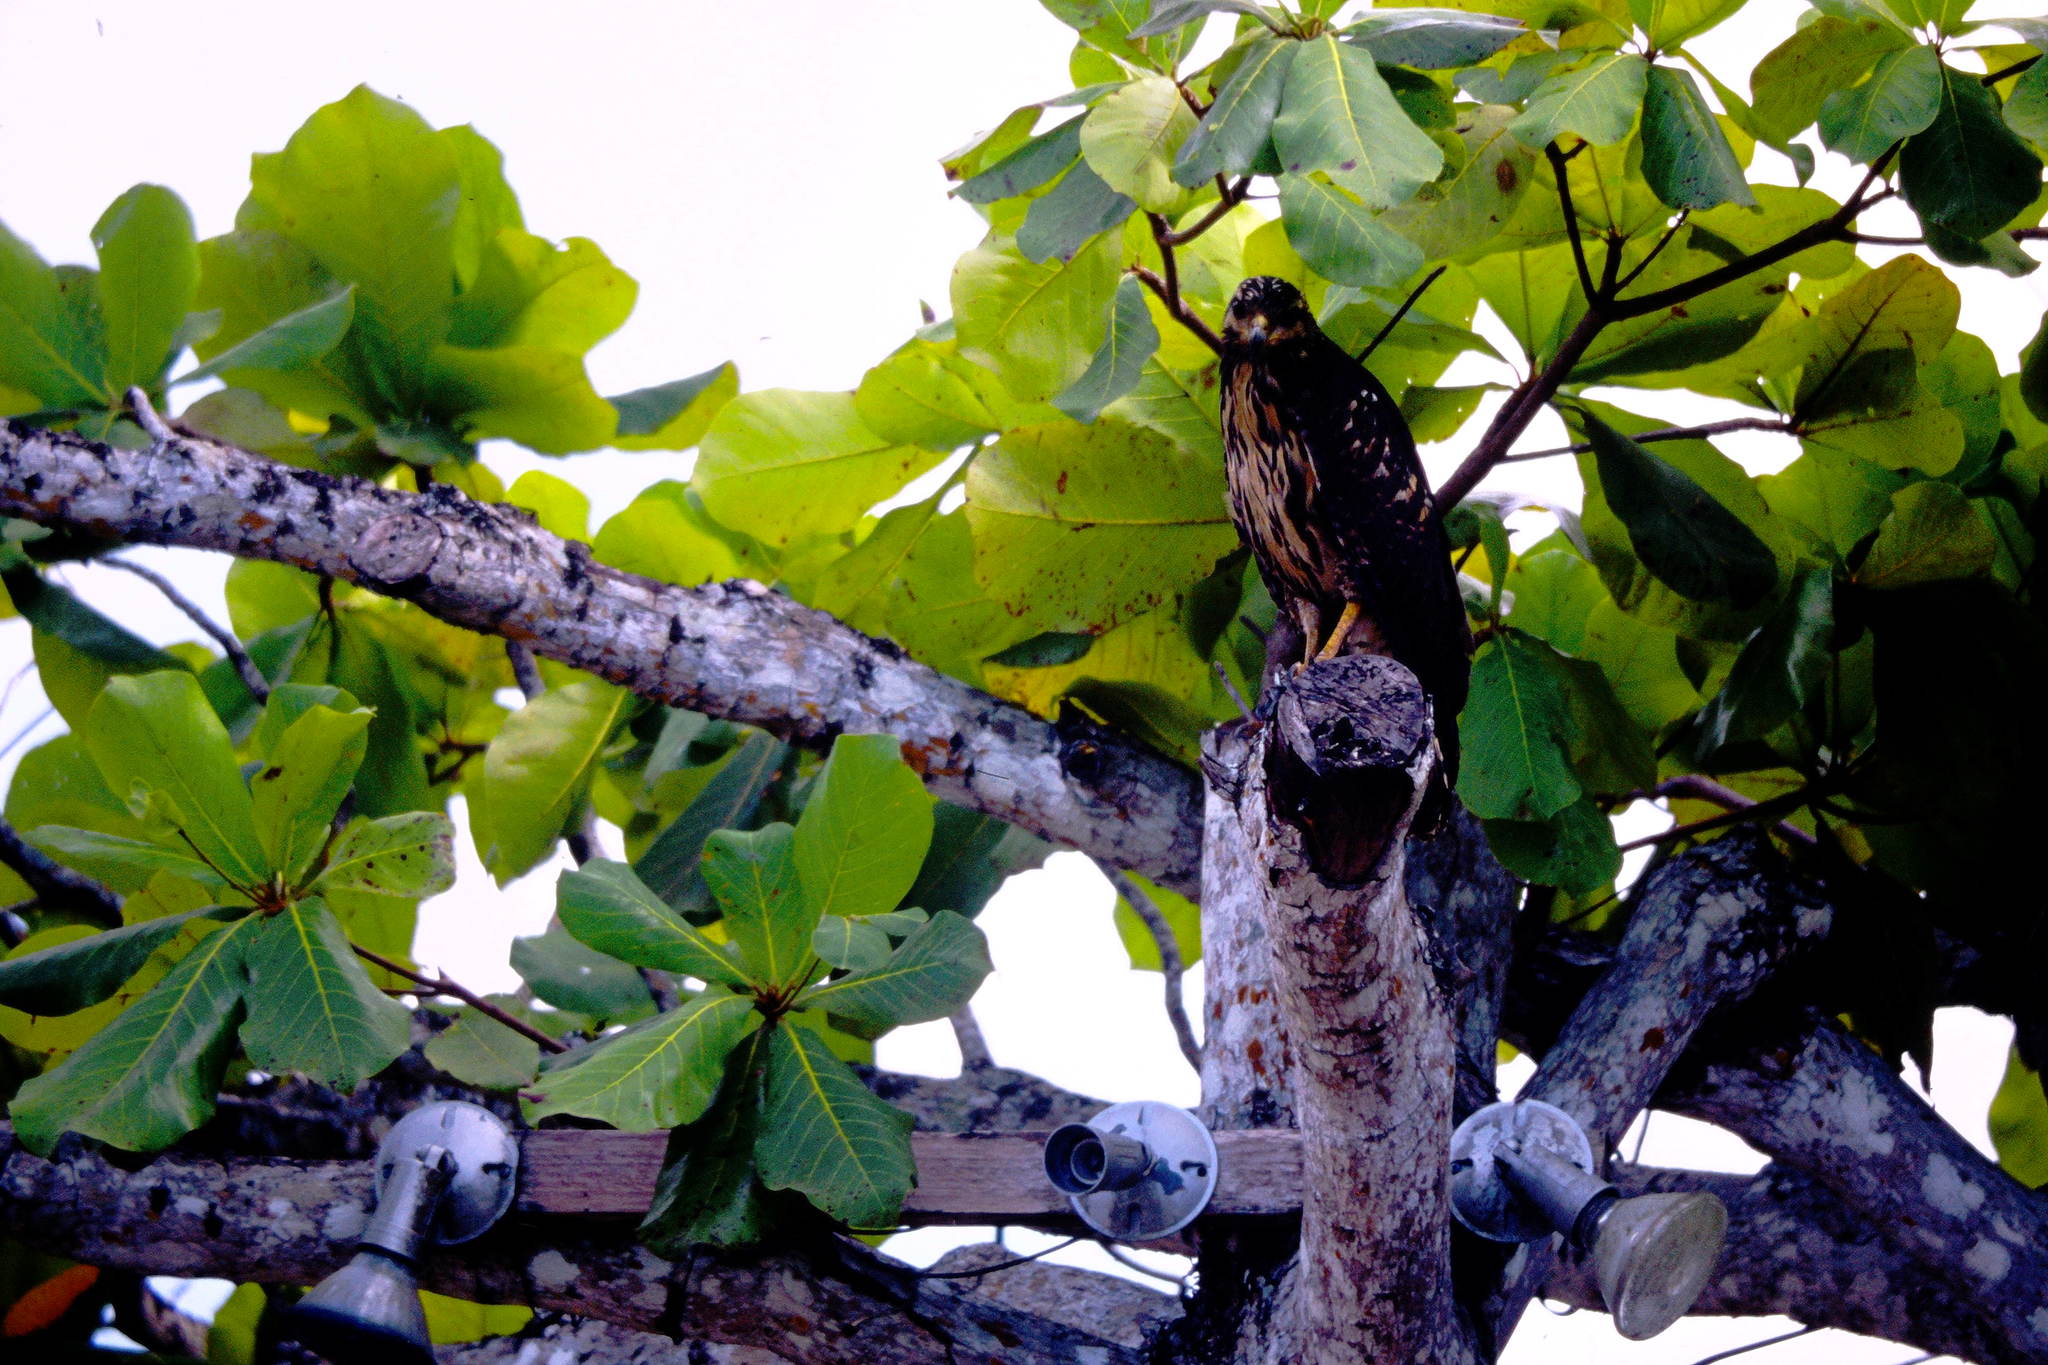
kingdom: Animalia
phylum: Chordata
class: Aves
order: Accipitriformes
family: Accipitridae
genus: Buteogallus
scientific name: Buteogallus anthracinus
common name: Common black hawk
